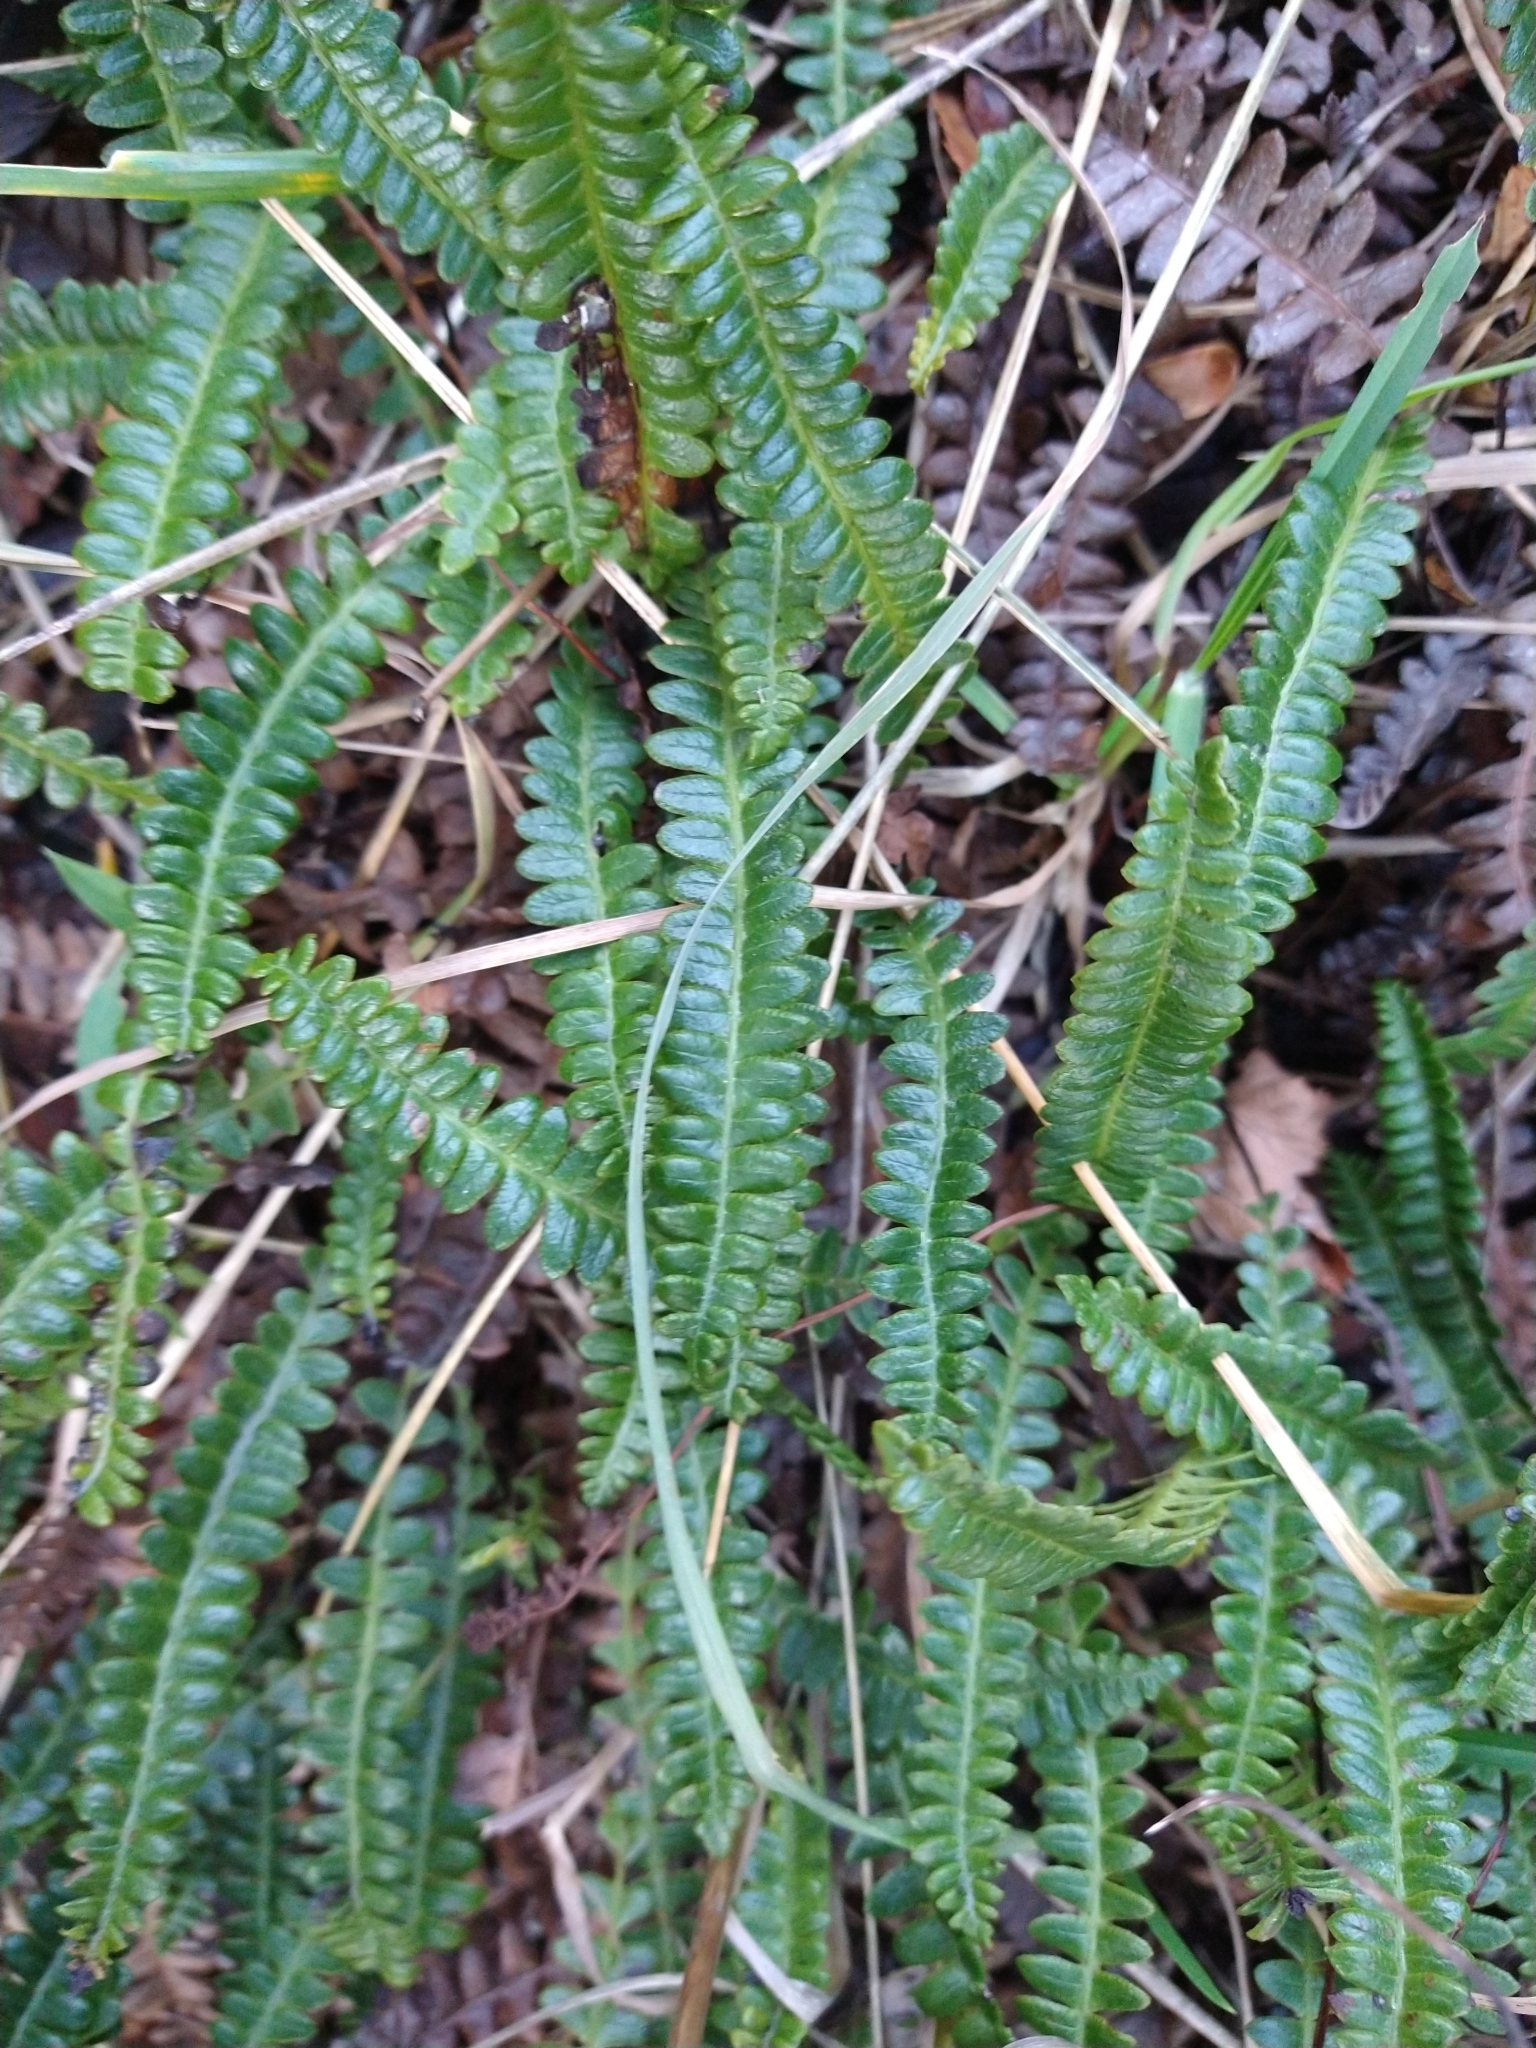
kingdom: Plantae
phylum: Tracheophyta
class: Polypodiopsida
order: Polypodiales
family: Blechnaceae
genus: Austroblechnum
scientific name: Austroblechnum penna-marina
